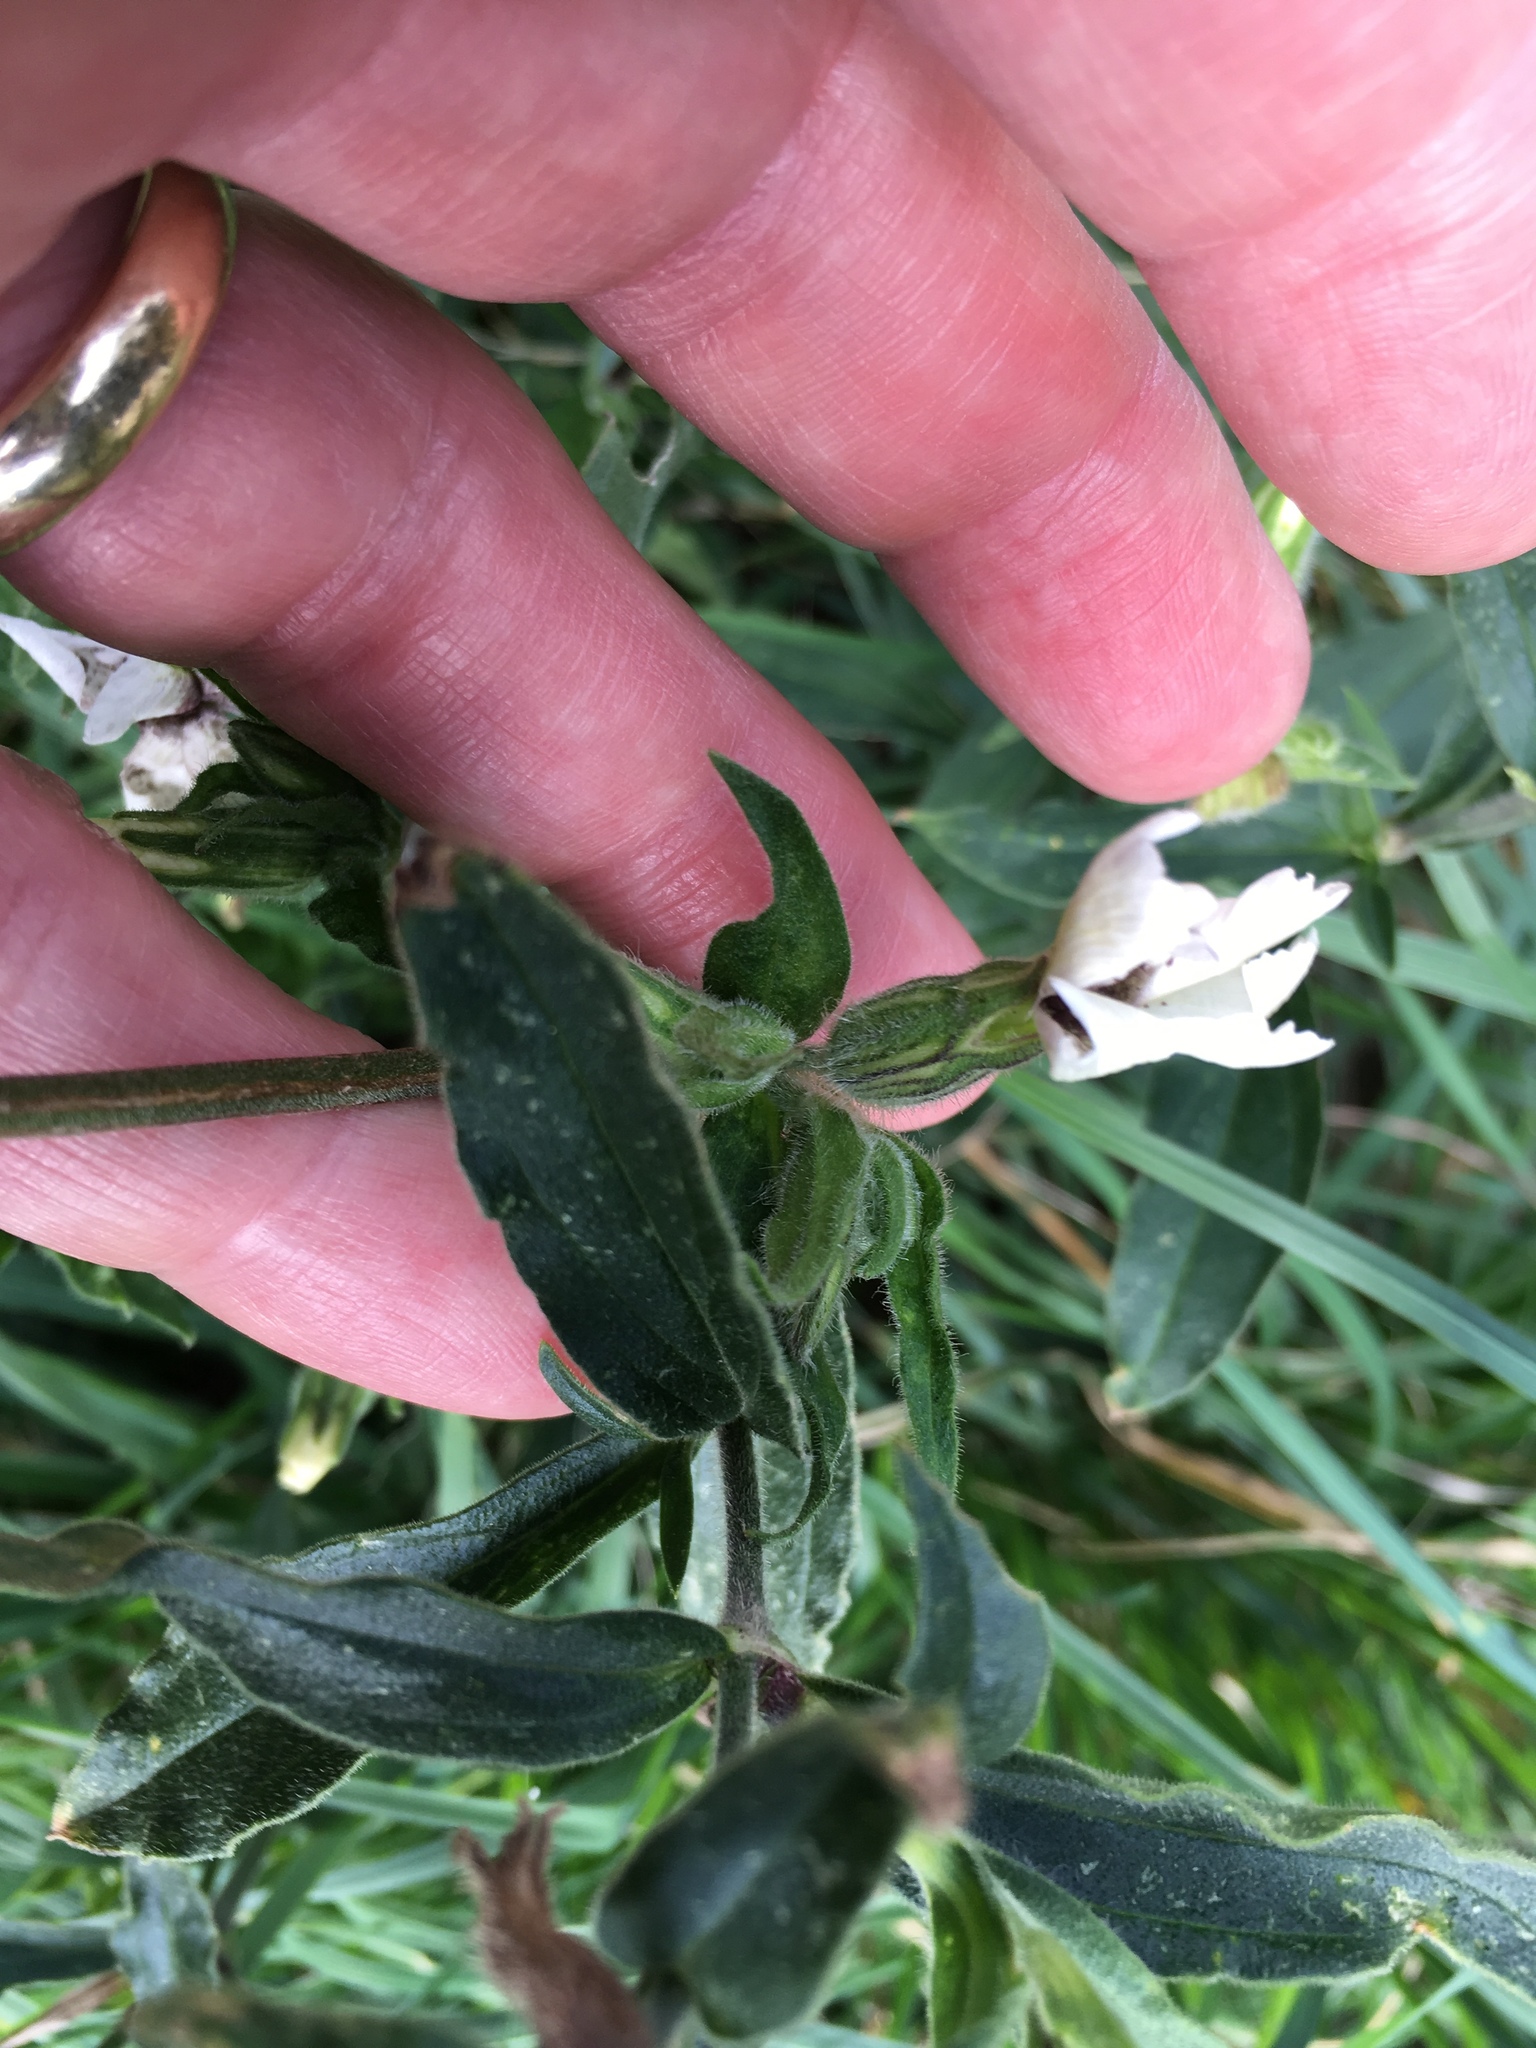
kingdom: Plantae
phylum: Tracheophyta
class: Magnoliopsida
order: Caryophyllales
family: Caryophyllaceae
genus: Silene
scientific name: Silene latifolia
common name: White campion
